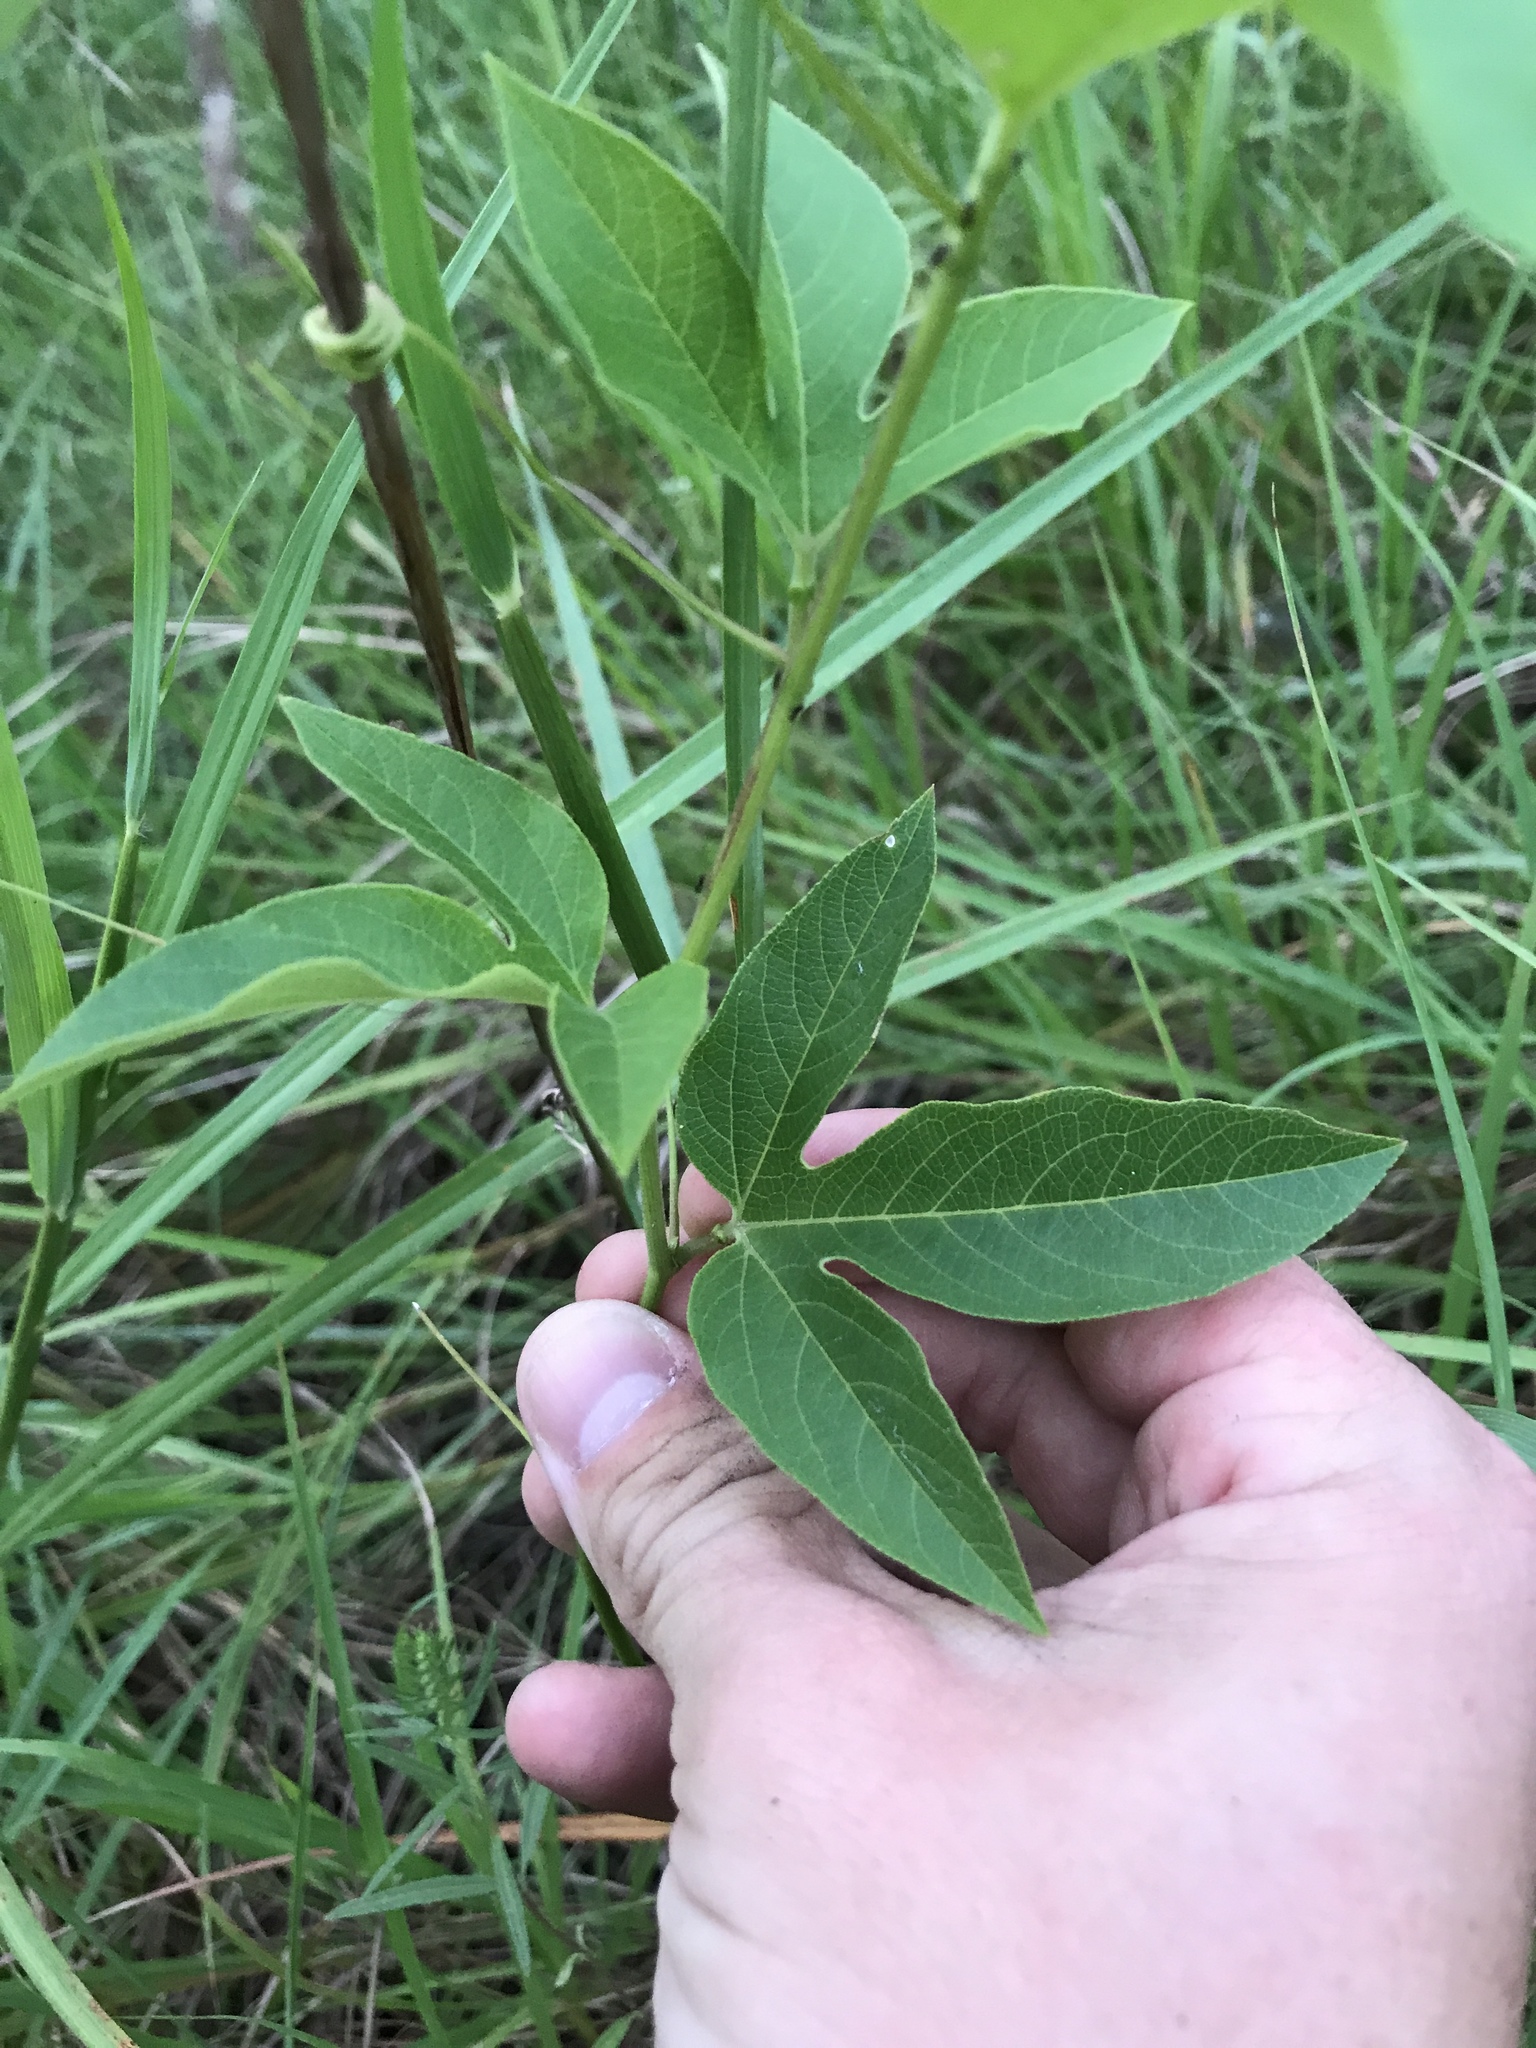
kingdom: Plantae
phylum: Tracheophyta
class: Magnoliopsida
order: Malpighiales
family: Passifloraceae
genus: Passiflora
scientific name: Passiflora incarnata
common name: Apricot-vine
